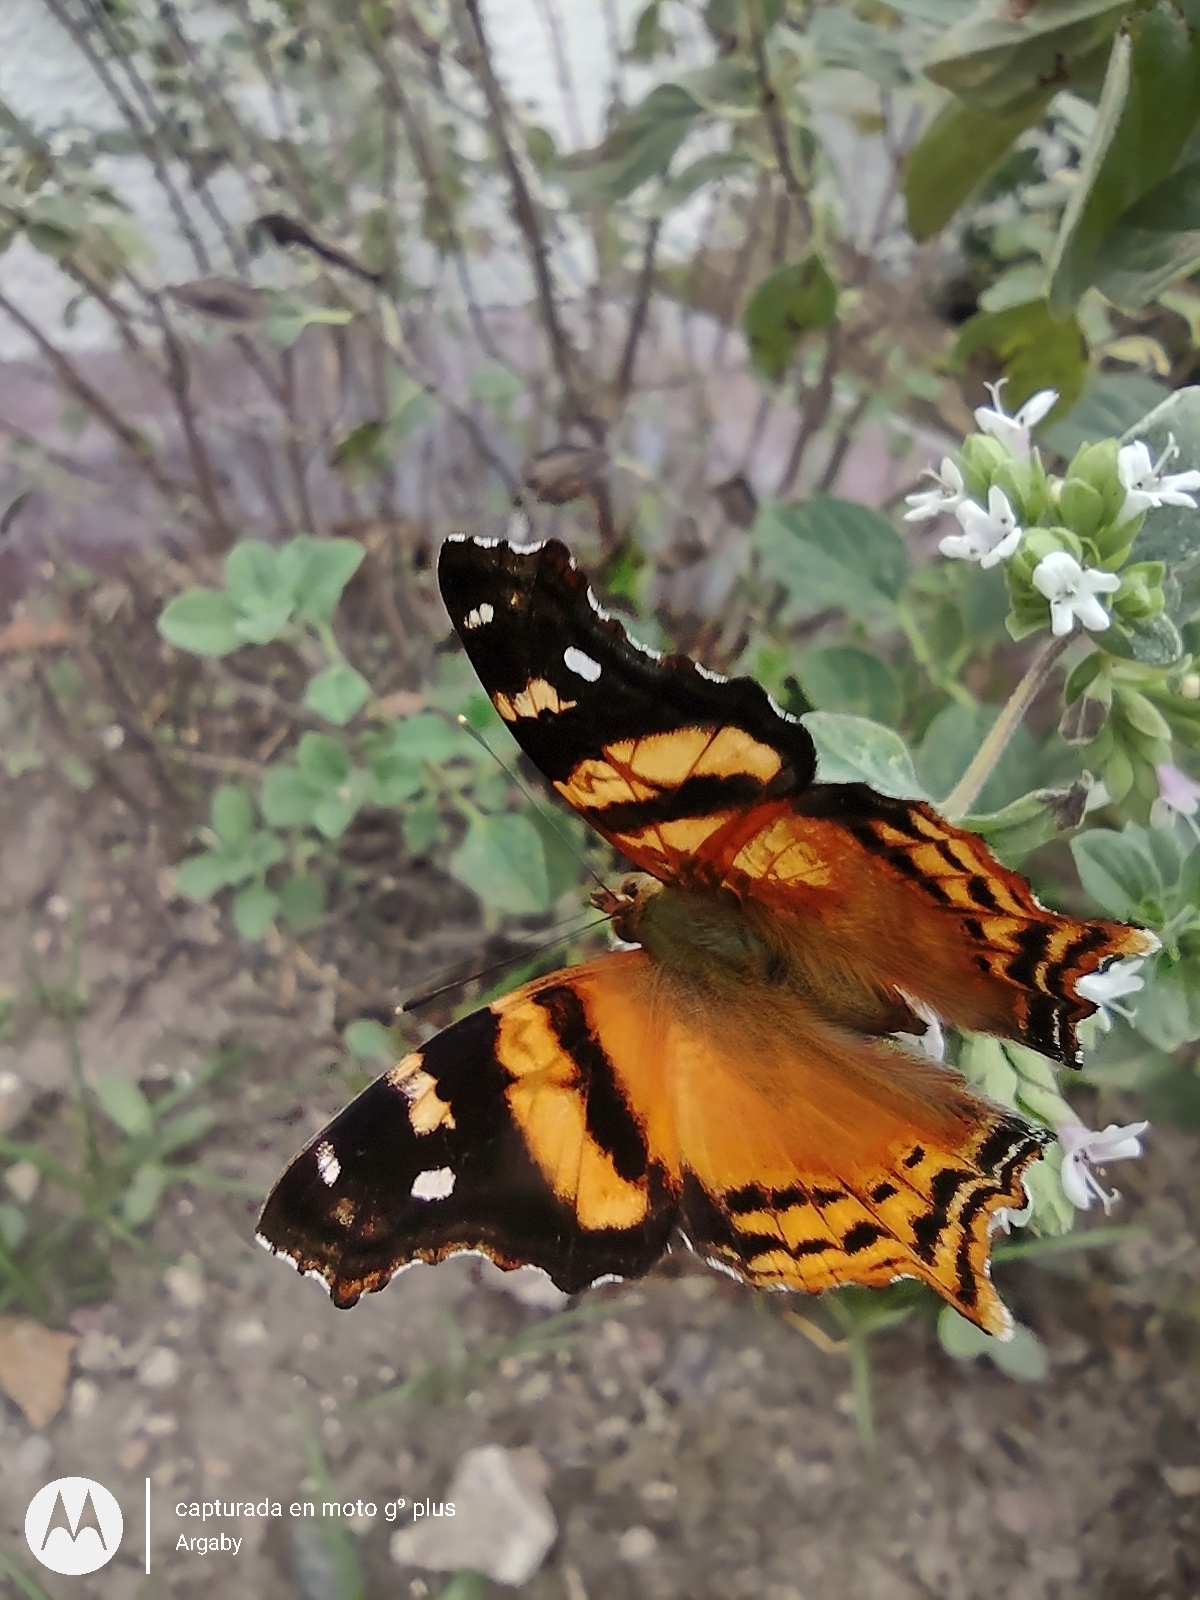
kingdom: Animalia
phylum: Arthropoda
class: Insecta
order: Lepidoptera
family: Nymphalidae
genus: Hypanartia
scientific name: Hypanartia bella
